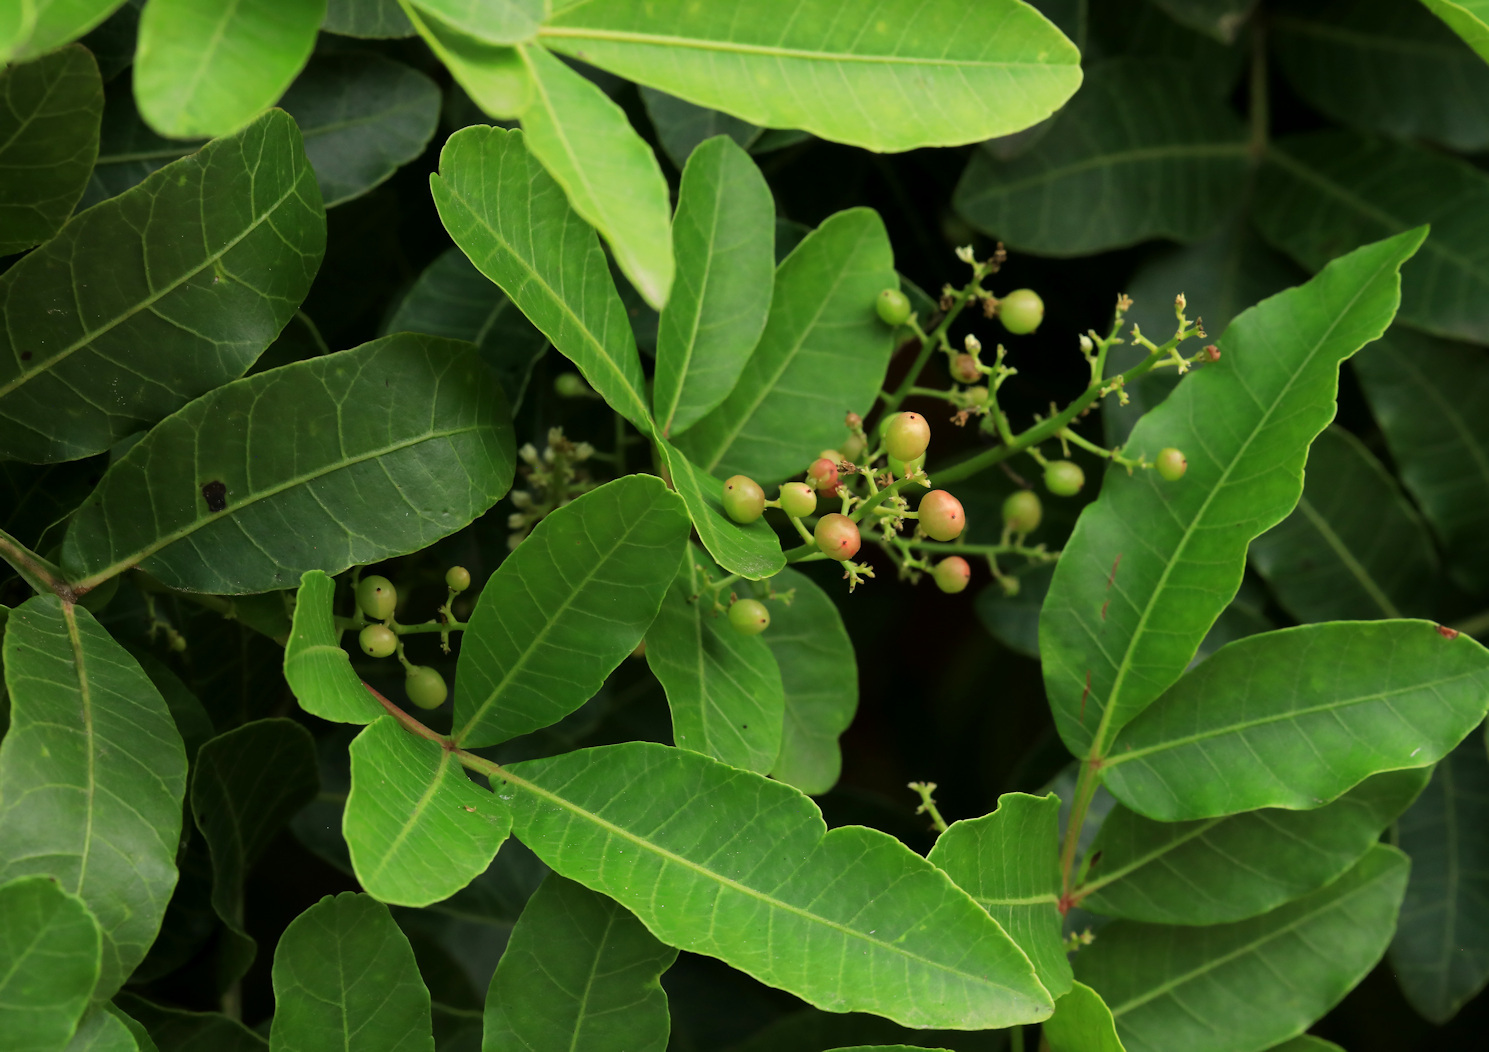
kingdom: Plantae
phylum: Tracheophyta
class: Magnoliopsida
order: Sapindales
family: Anacardiaceae
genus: Schinus
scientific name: Schinus terebinthifolia
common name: Brazilian peppertree
